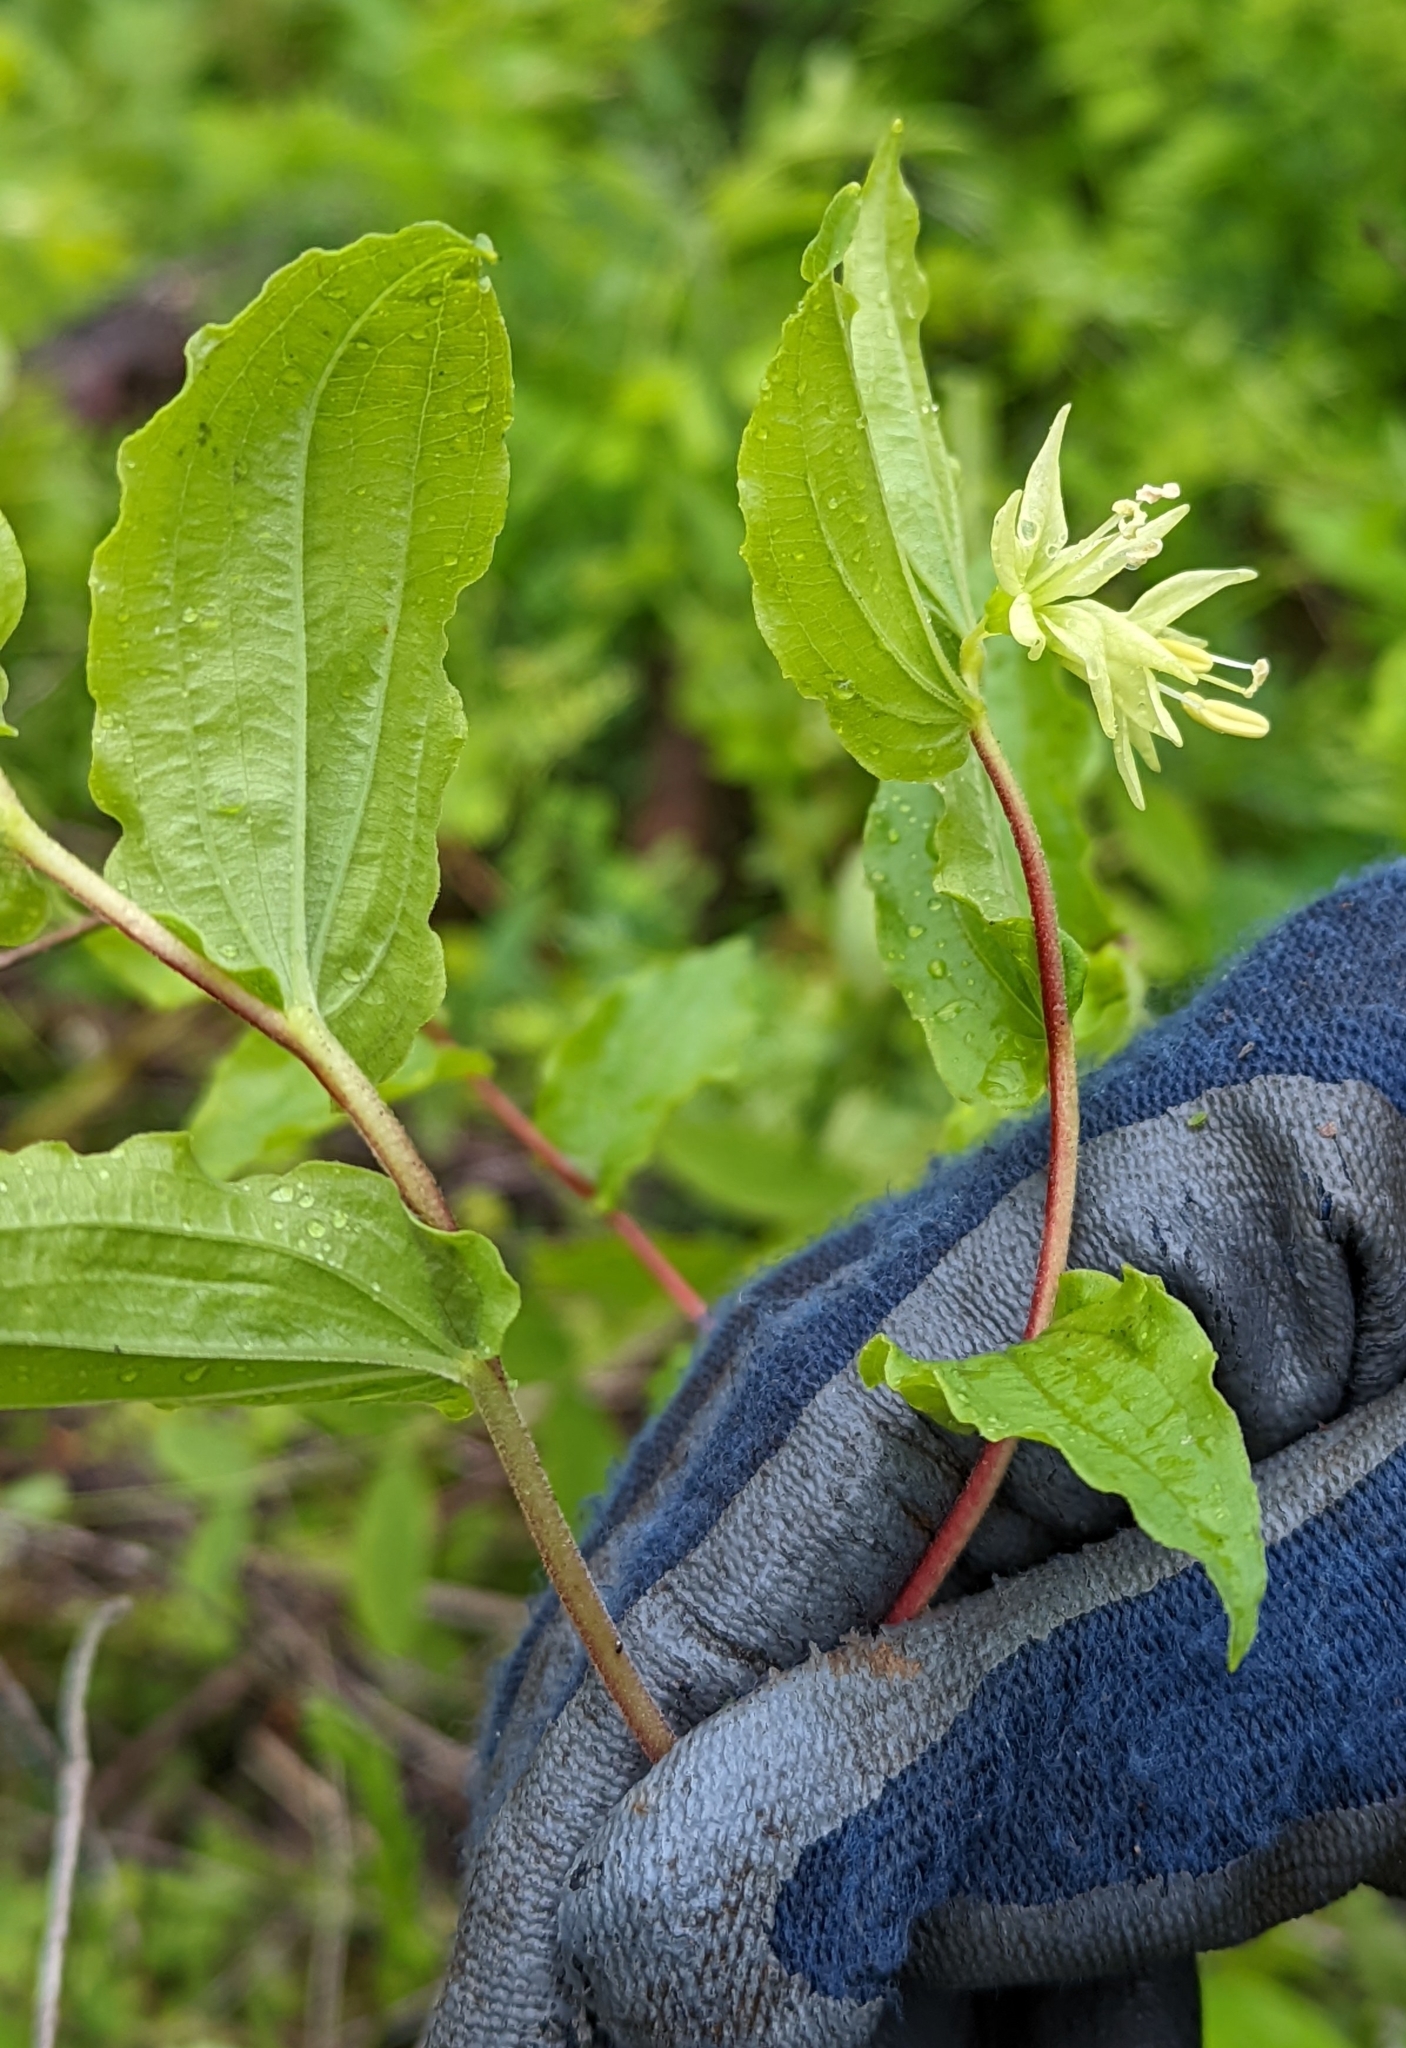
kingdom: Plantae
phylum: Tracheophyta
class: Liliopsida
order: Liliales
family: Liliaceae
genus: Prosartes
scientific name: Prosartes hookeri
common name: Fairy-bells
